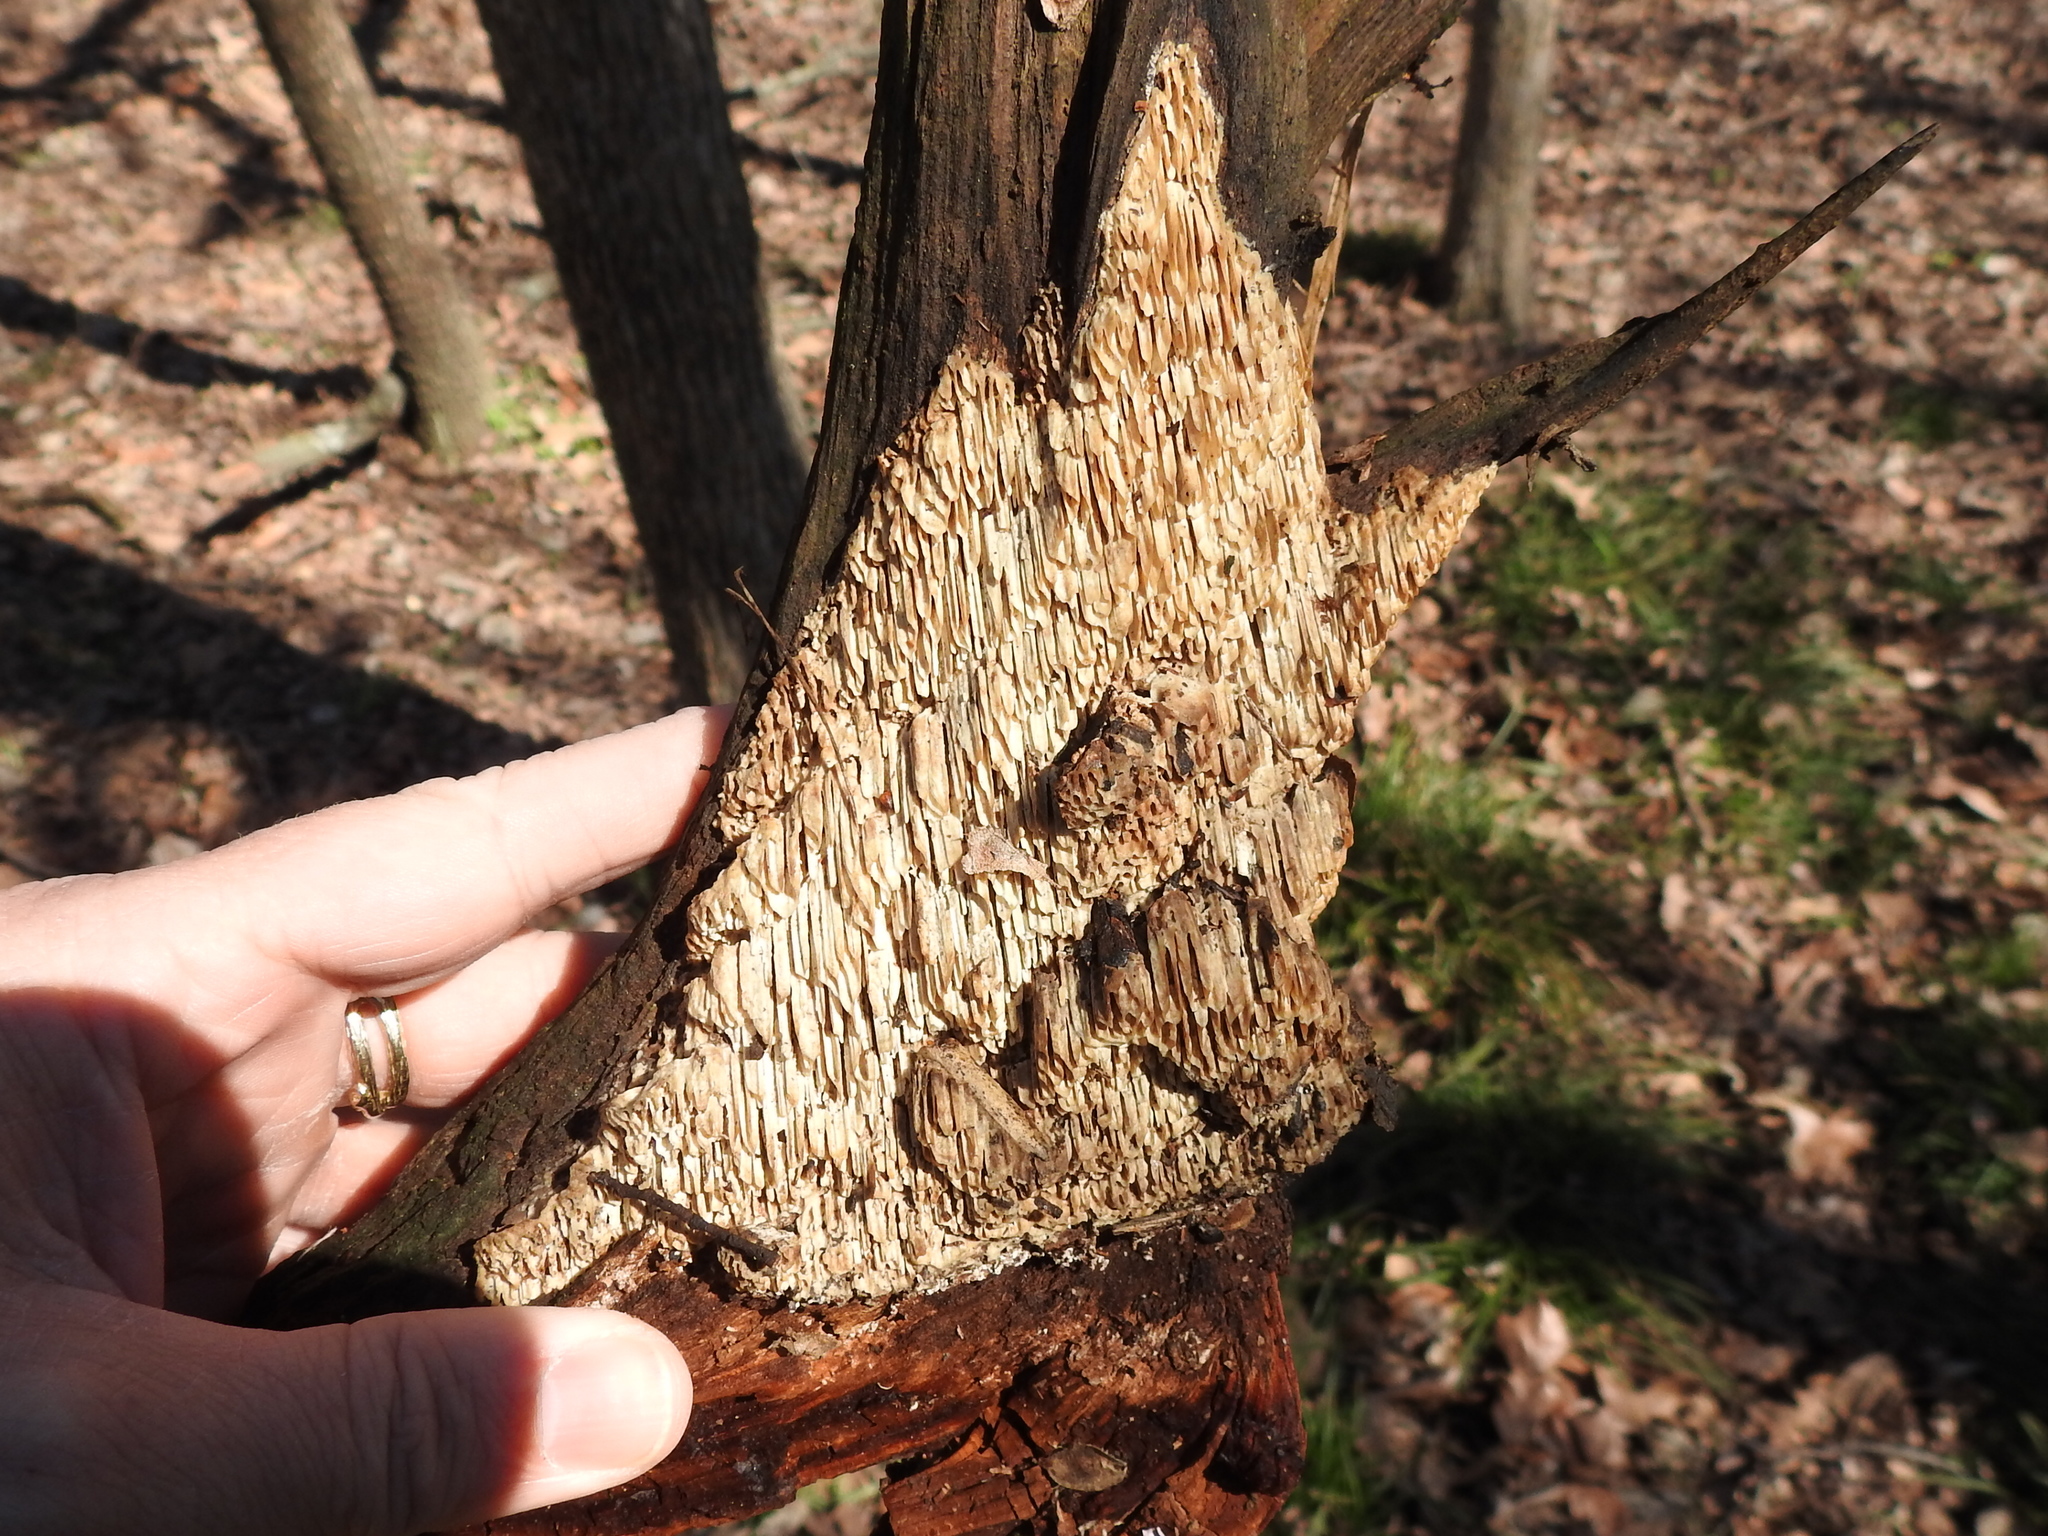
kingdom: Fungi
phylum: Basidiomycota
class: Agaricomycetes
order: Polyporales
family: Irpicaceae
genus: Irpex
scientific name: Irpex lacteus
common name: Milk-white toothed polypore
